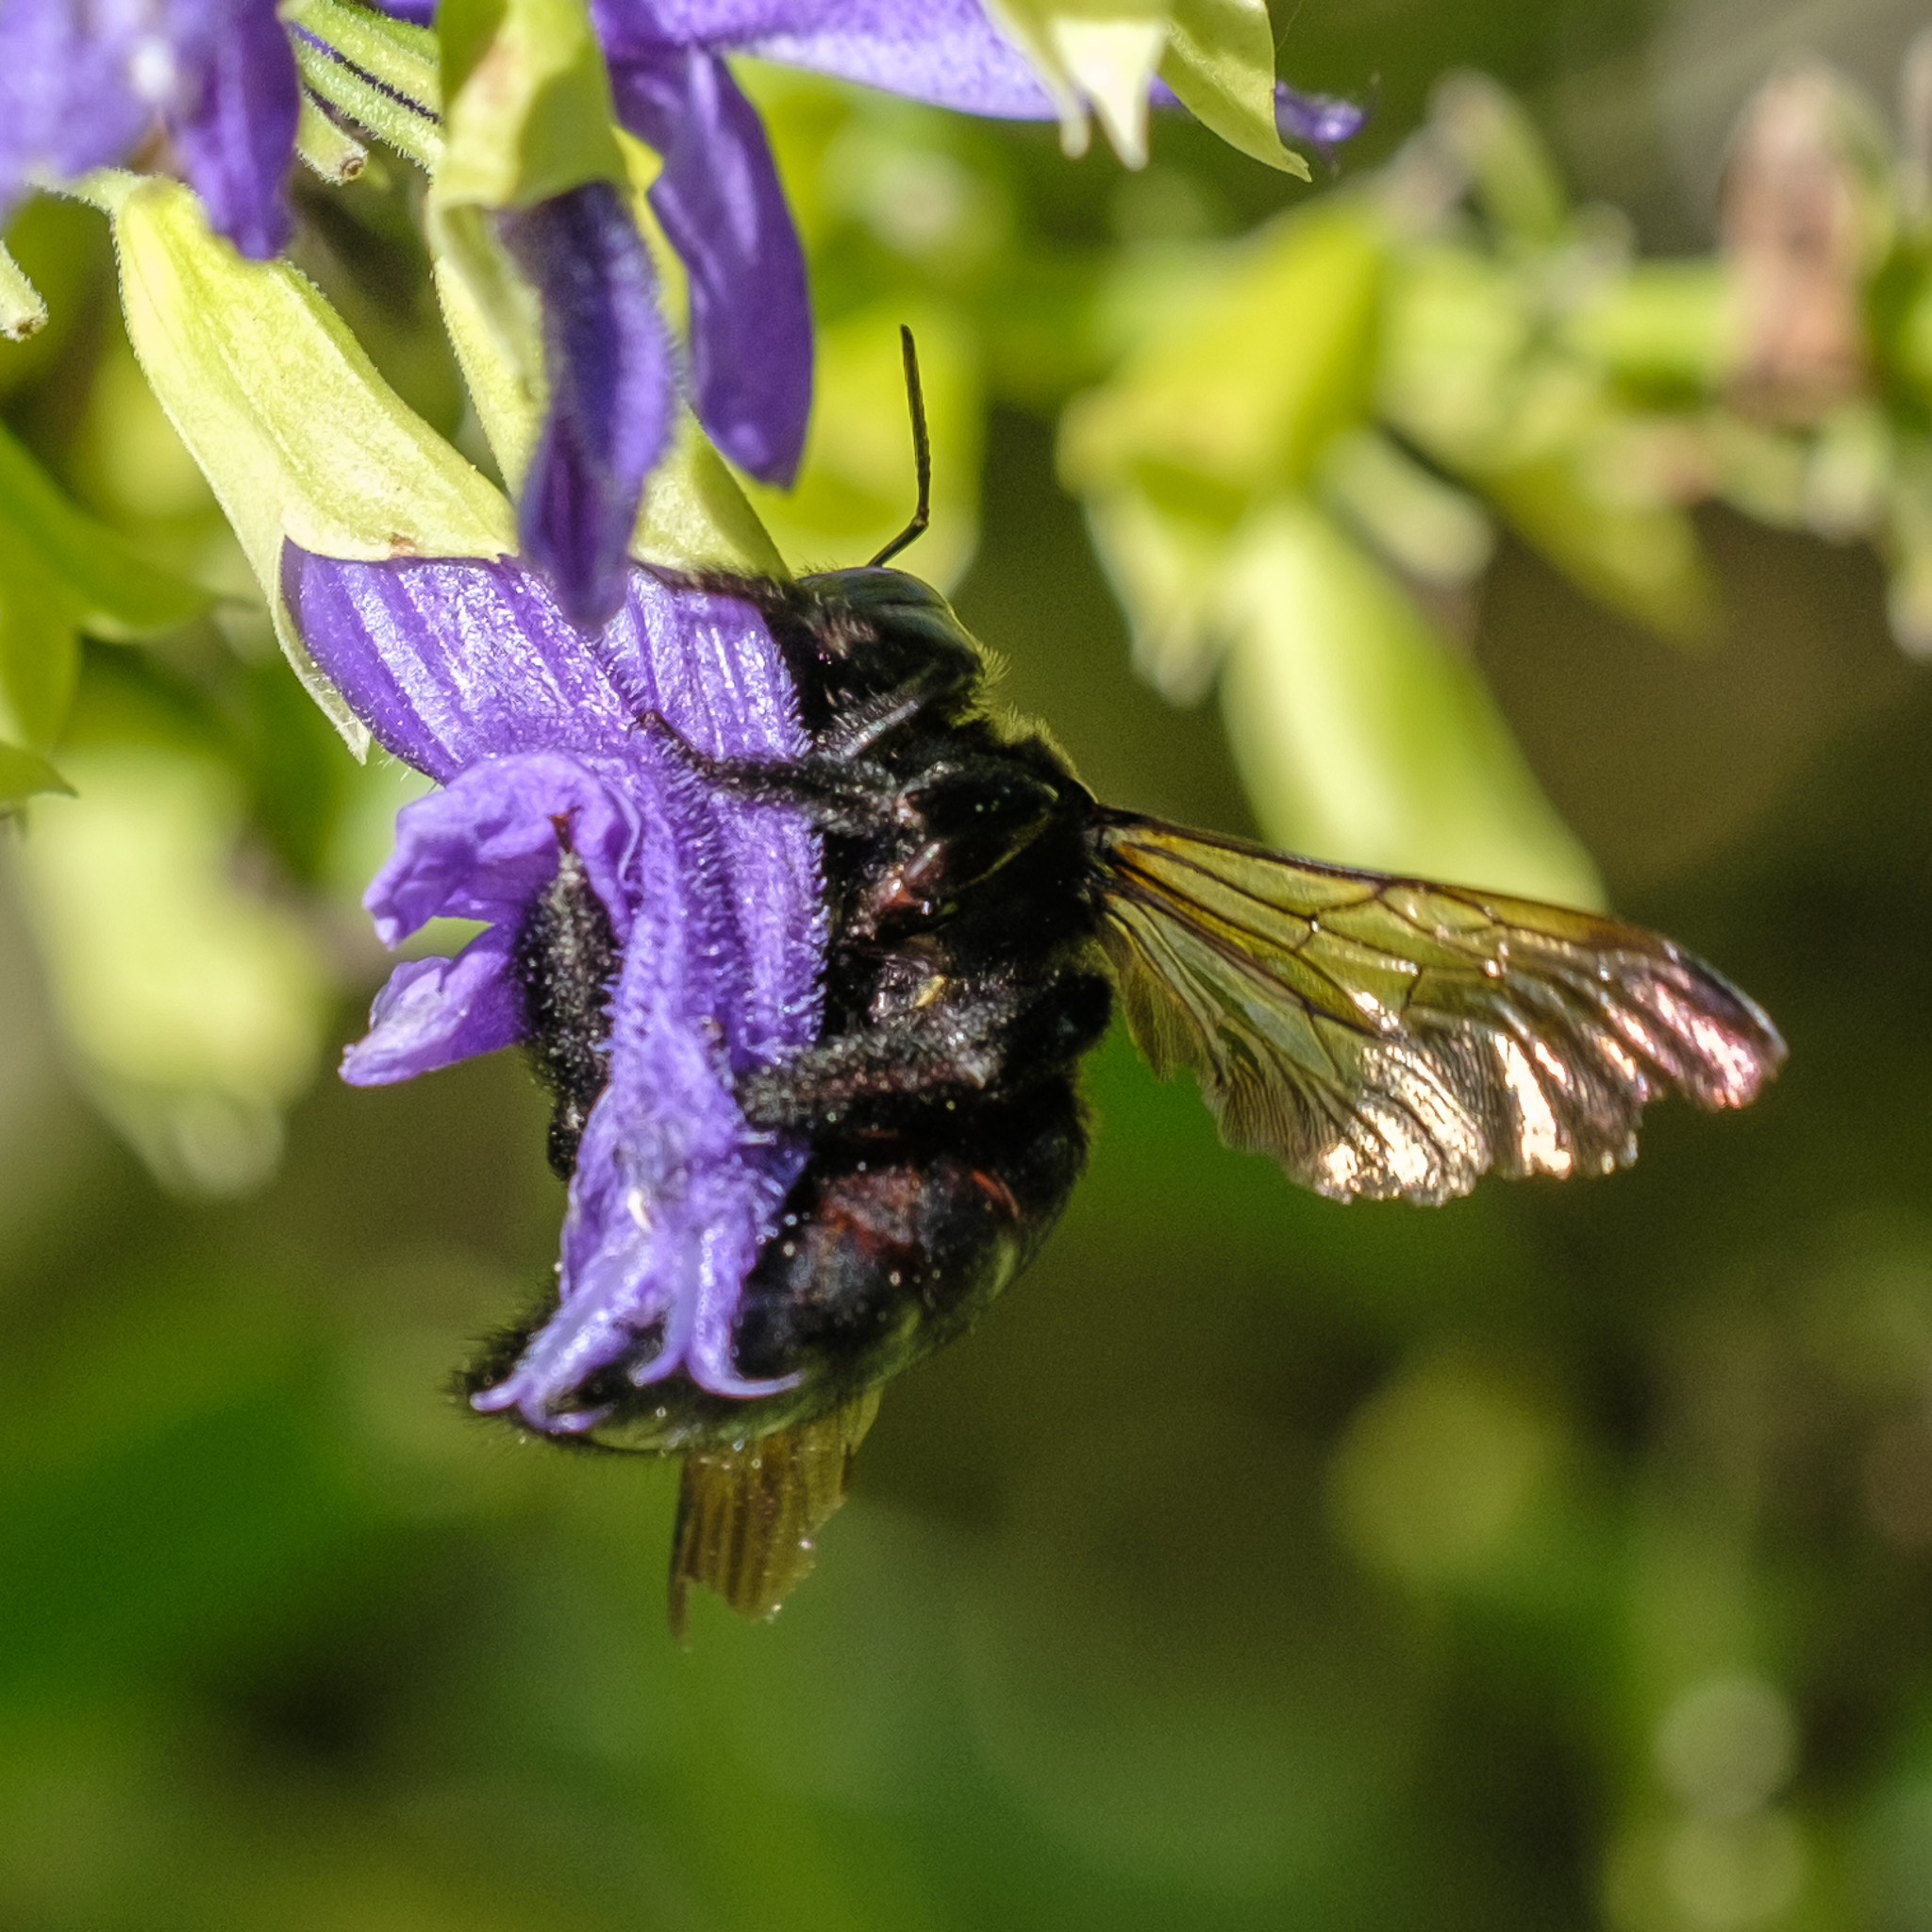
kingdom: Animalia
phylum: Arthropoda
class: Insecta
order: Hymenoptera
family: Apidae
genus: Xylocopa
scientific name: Xylocopa sonorina
